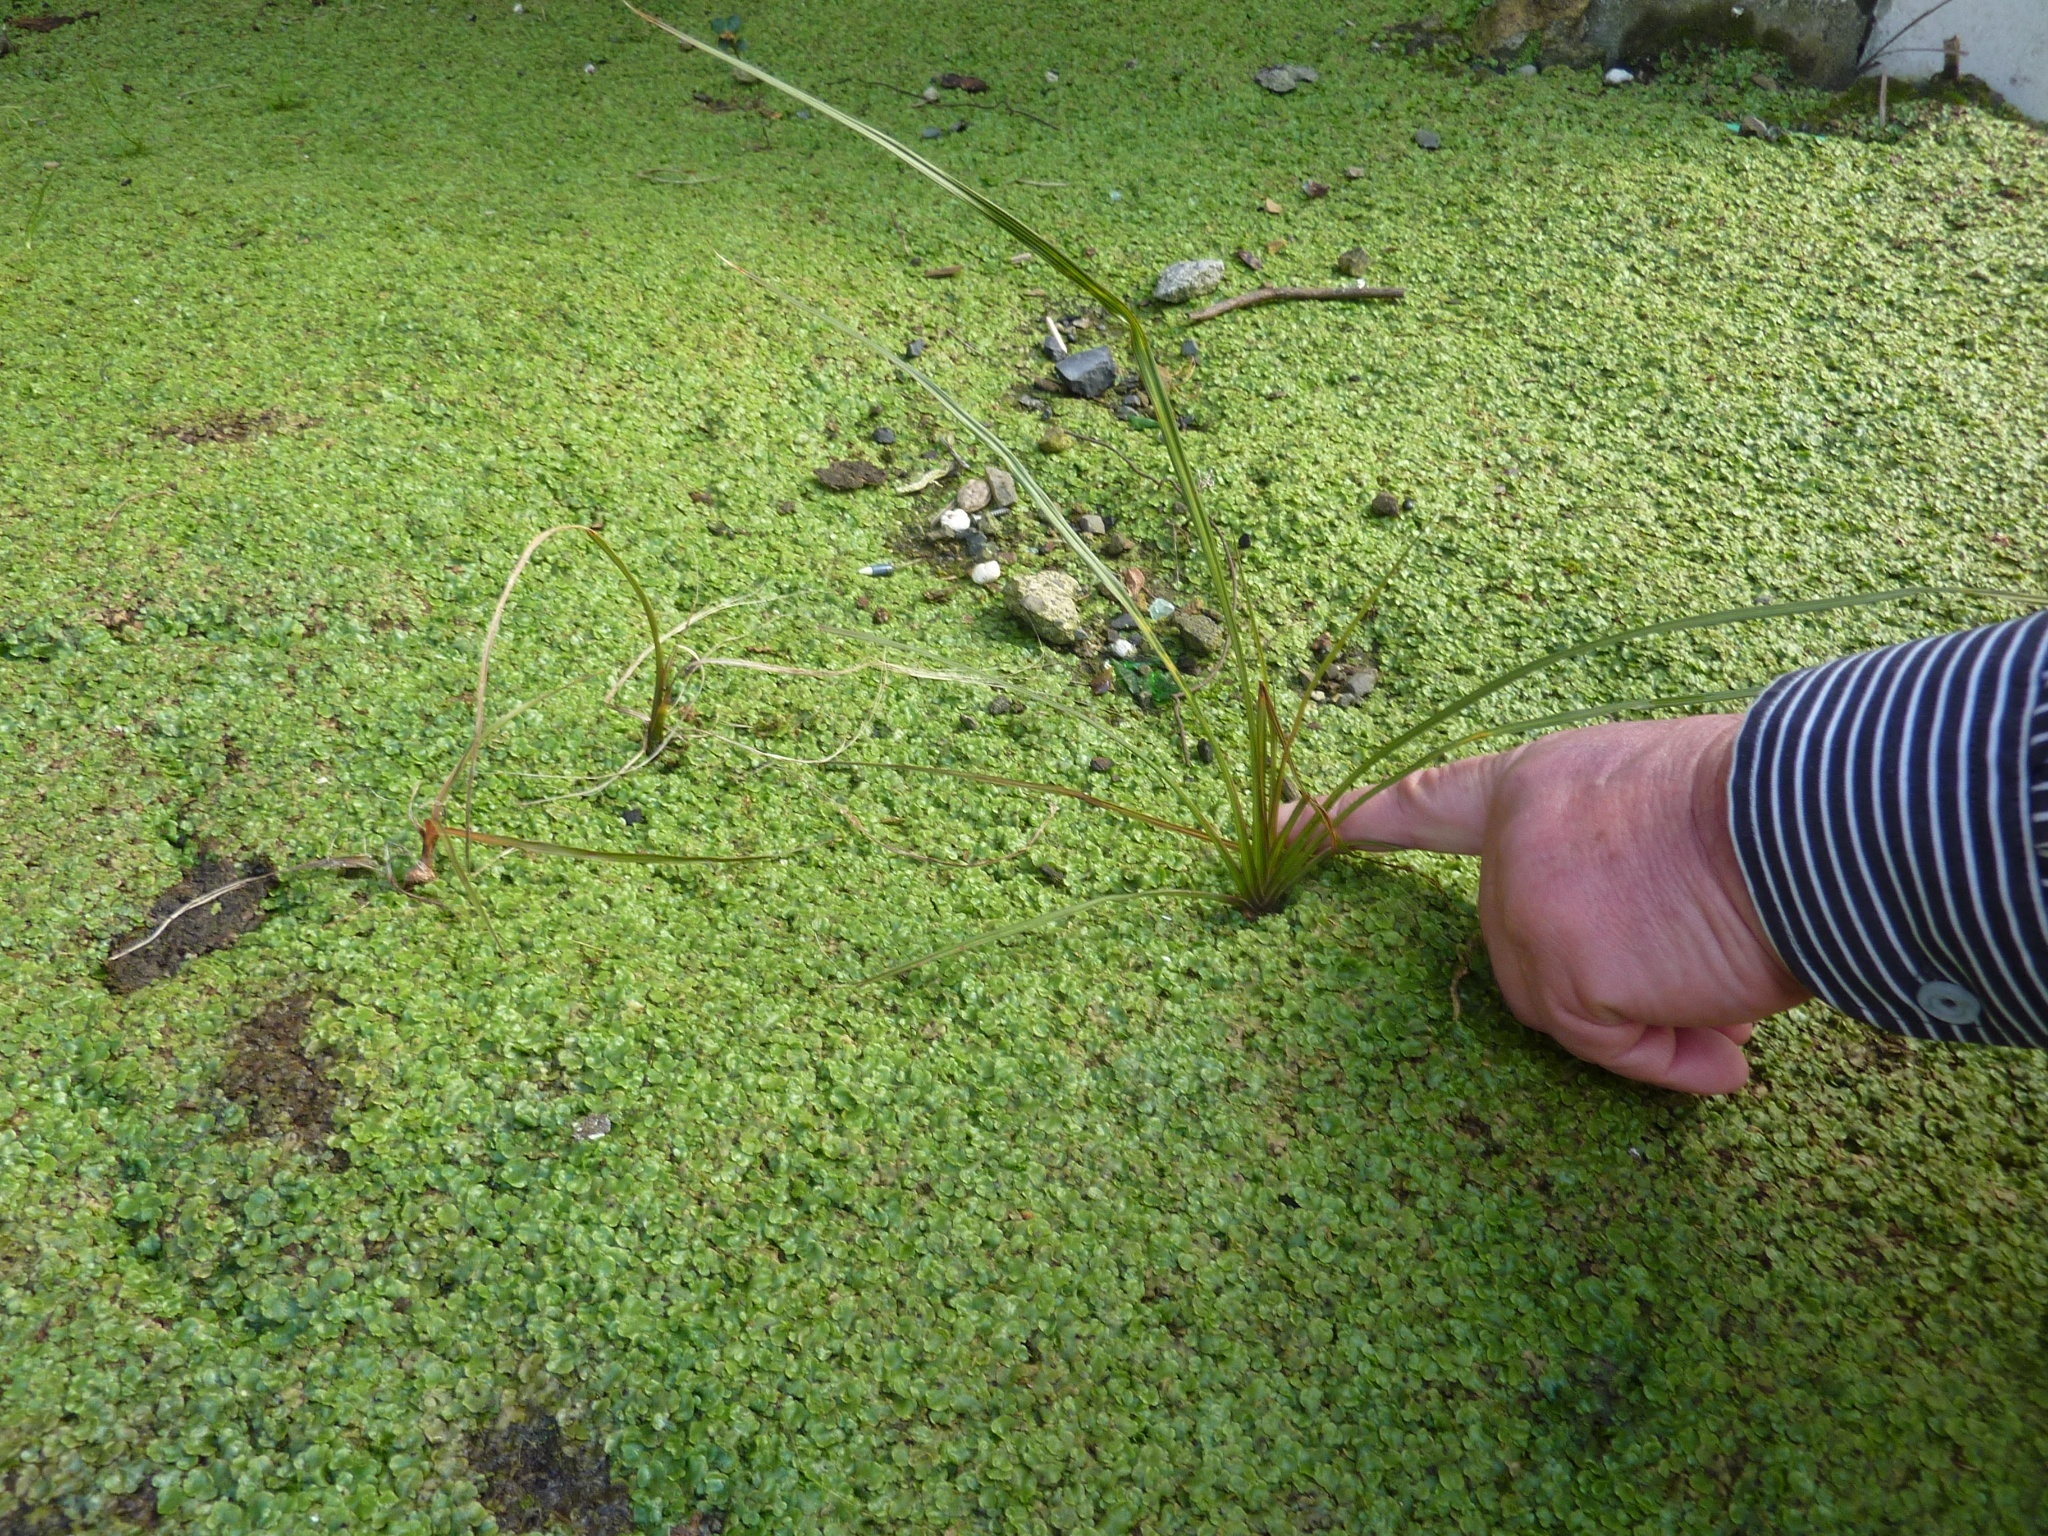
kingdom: Plantae
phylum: Tracheophyta
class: Liliopsida
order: Asparagales
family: Asparagaceae
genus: Cordyline
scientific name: Cordyline australis
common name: Cabbage-palm
